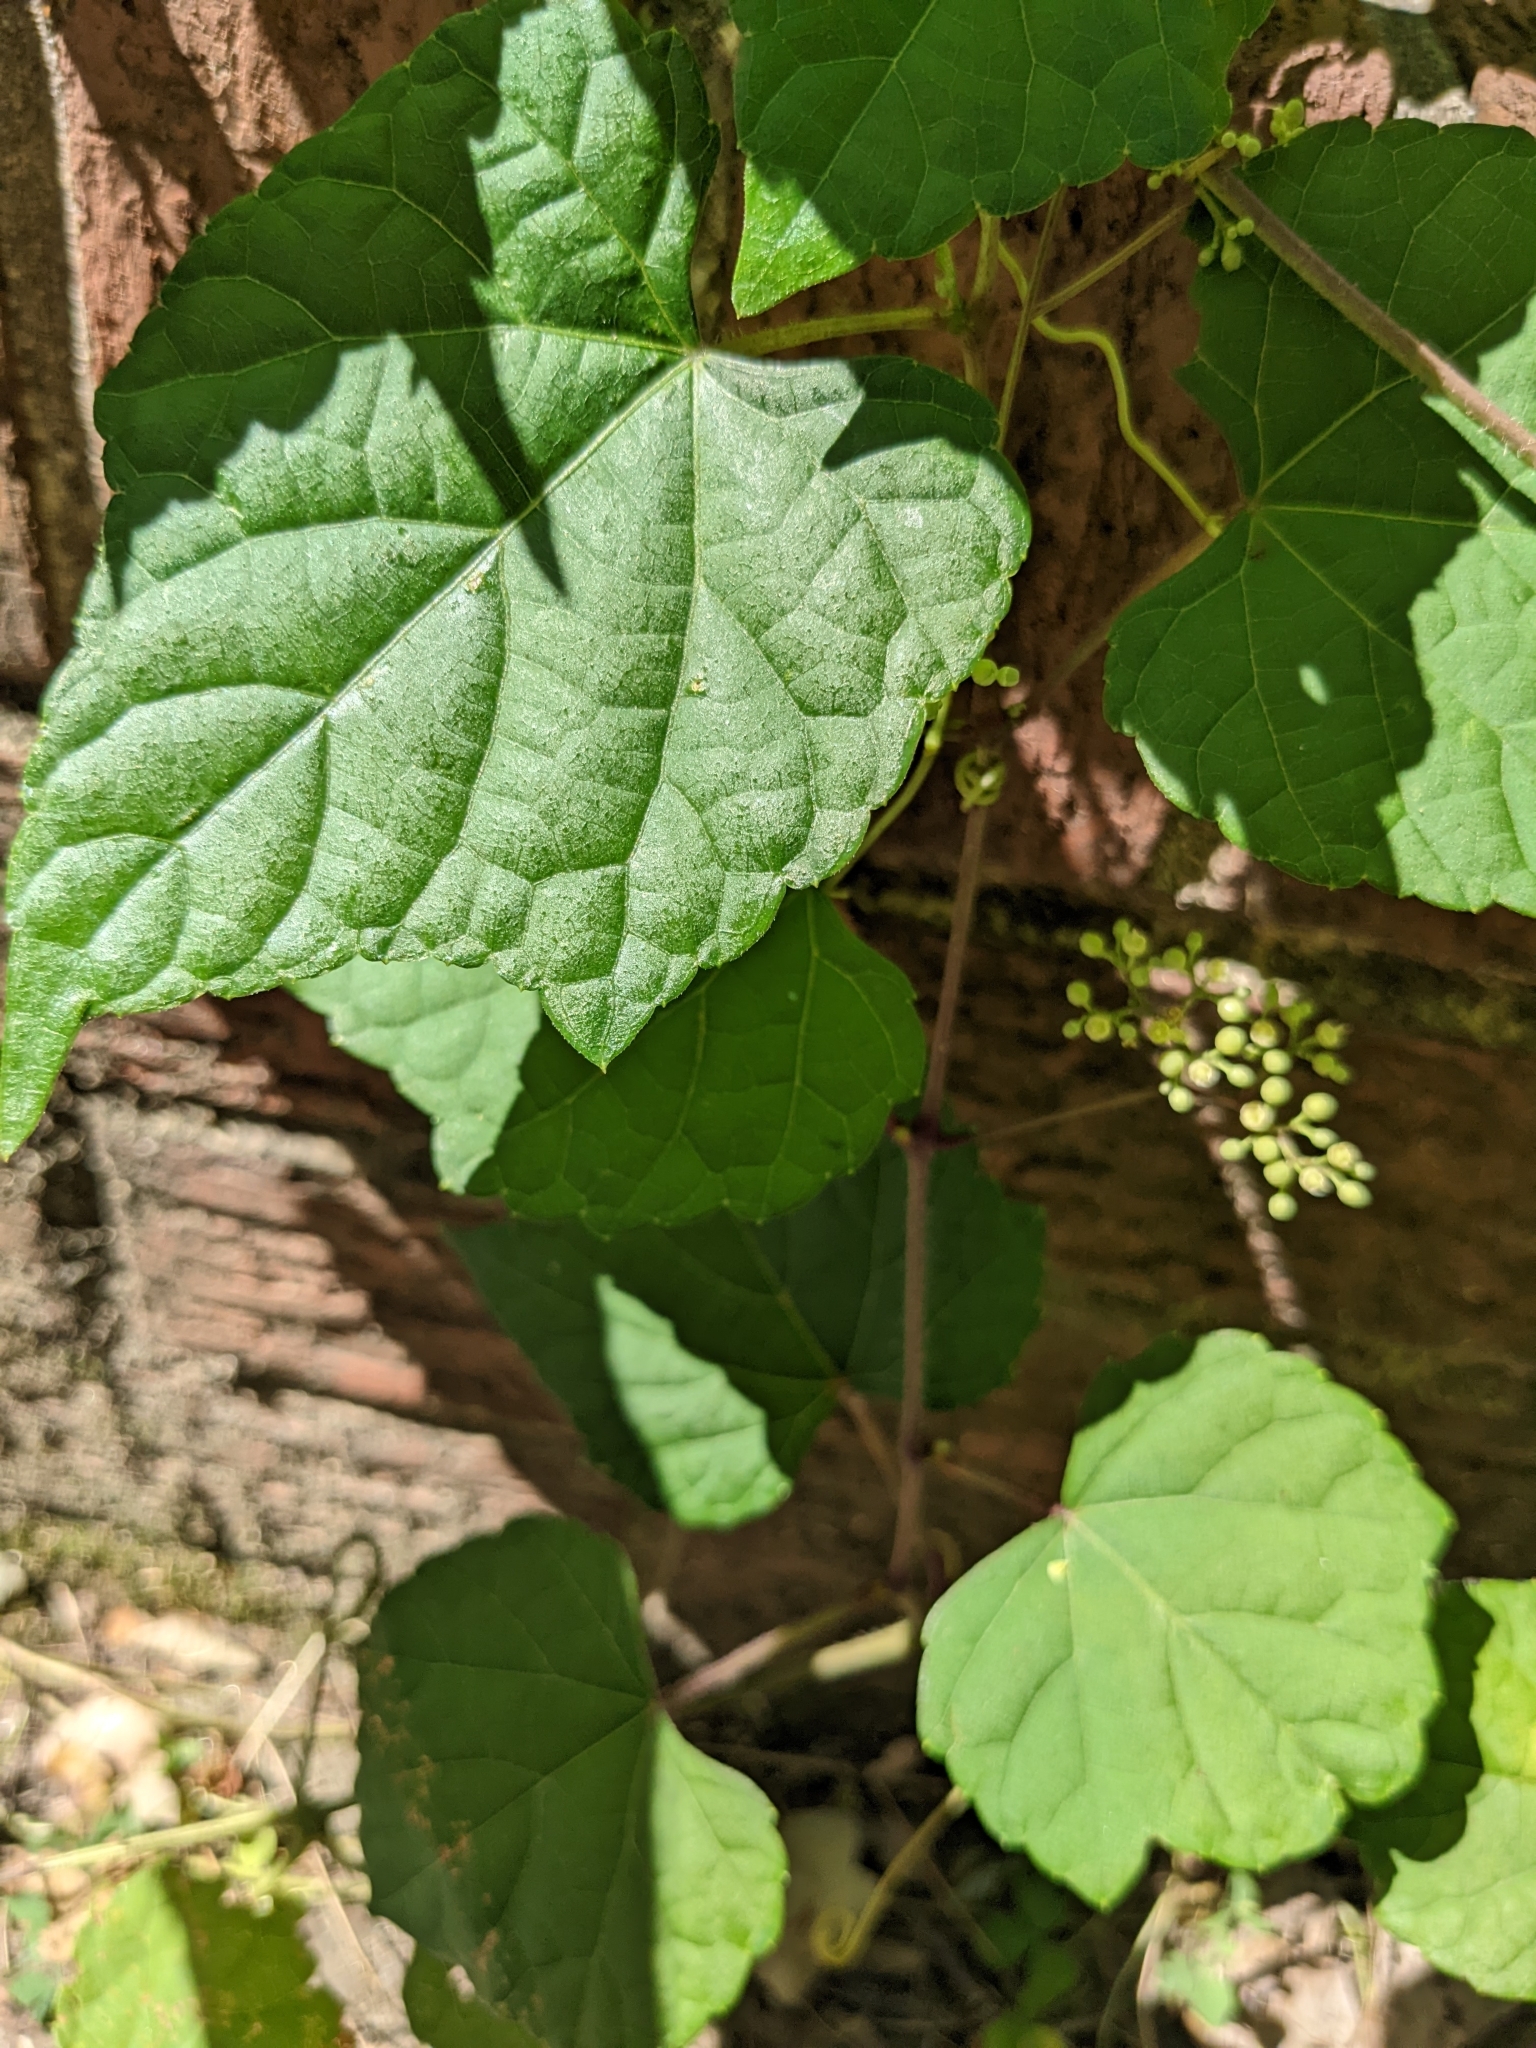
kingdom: Plantae
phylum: Tracheophyta
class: Magnoliopsida
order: Vitales
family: Vitaceae
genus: Ampelopsis
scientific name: Ampelopsis glandulosa
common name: Amur peppervine
